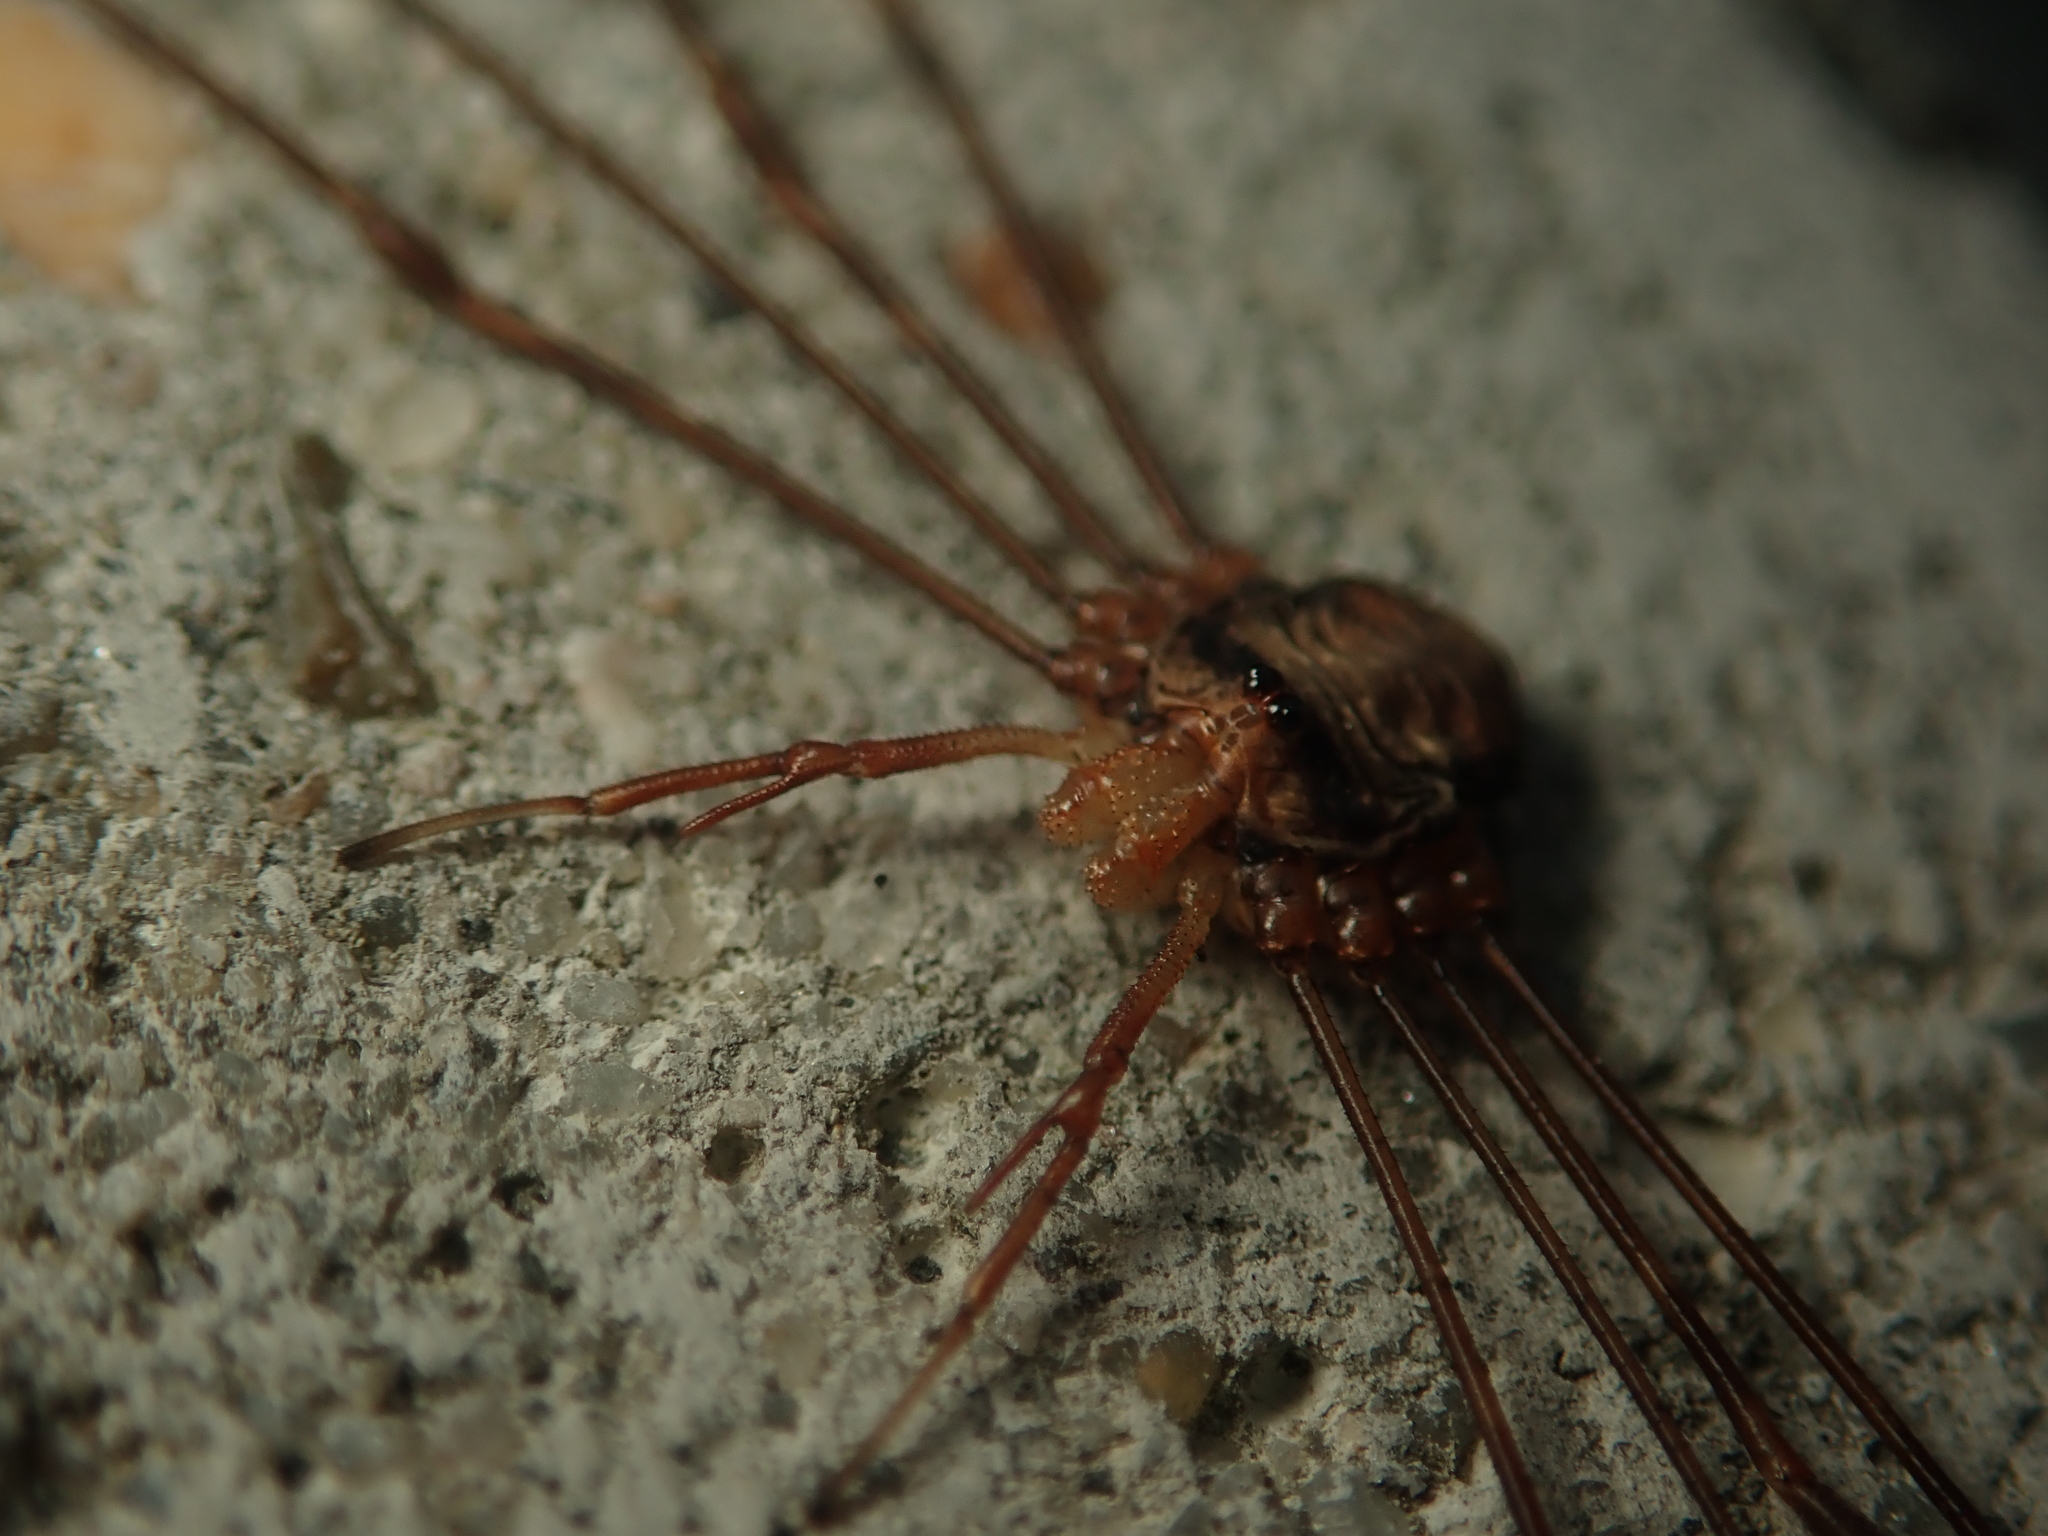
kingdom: Animalia
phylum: Arthropoda
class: Arachnida
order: Opiliones
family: Phalangiidae
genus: Dicranopalpus
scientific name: Dicranopalpus ramosus
